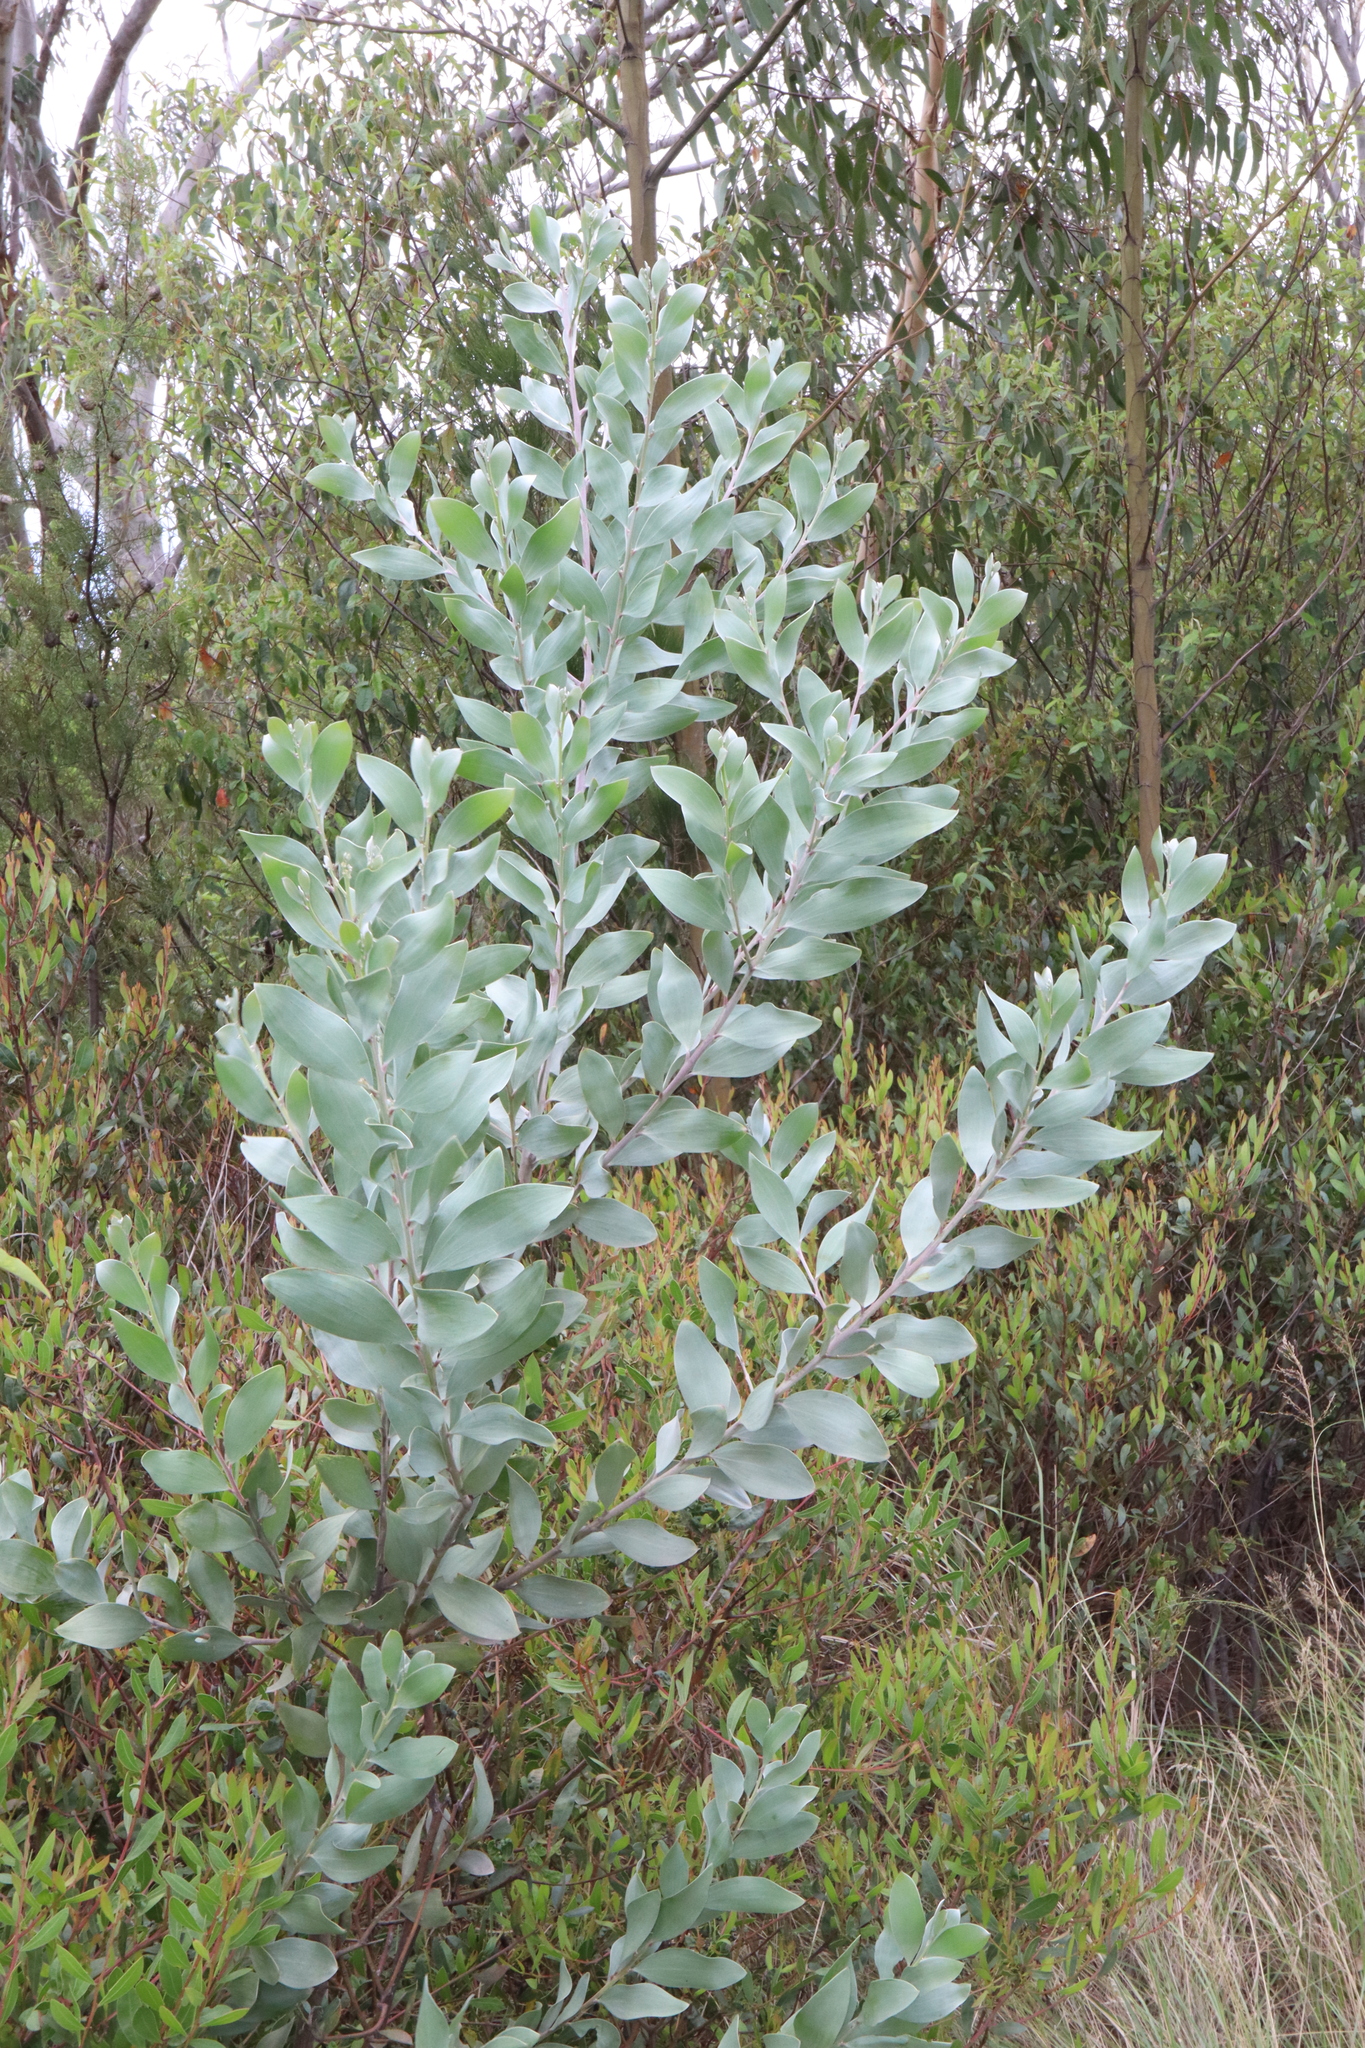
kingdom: Plantae
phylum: Tracheophyta
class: Magnoliopsida
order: Fabales
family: Fabaceae
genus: Acacia
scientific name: Acacia binervia
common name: Coast myall
